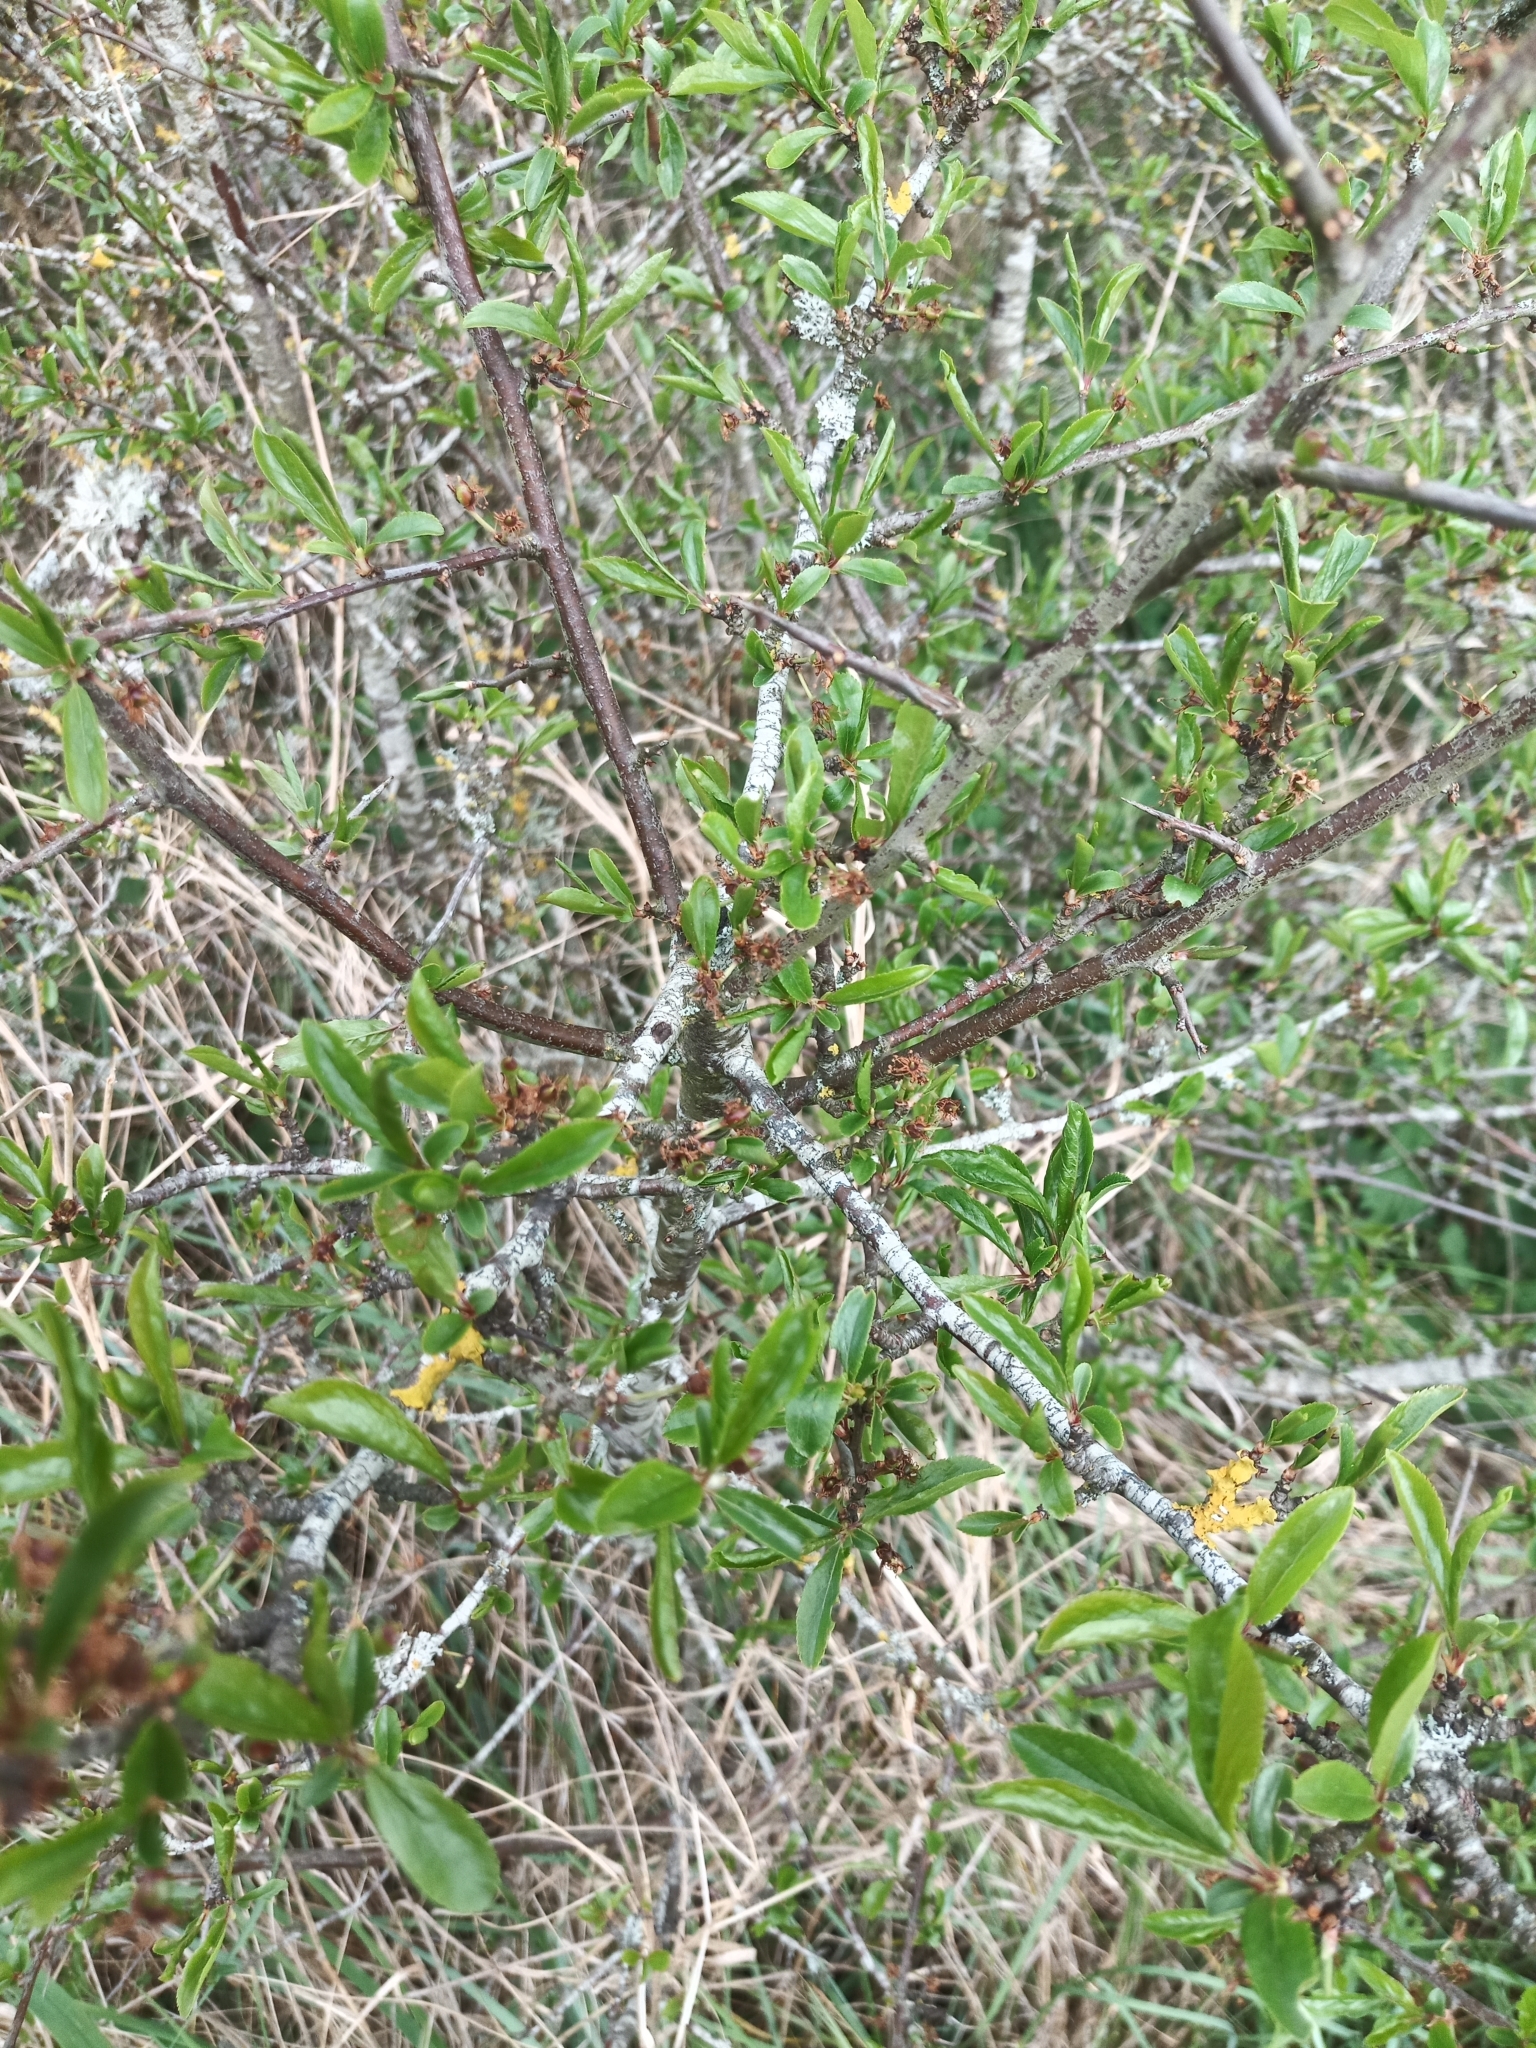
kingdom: Plantae
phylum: Tracheophyta
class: Magnoliopsida
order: Rosales
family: Rosaceae
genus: Prunus
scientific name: Prunus spinosa
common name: Blackthorn
